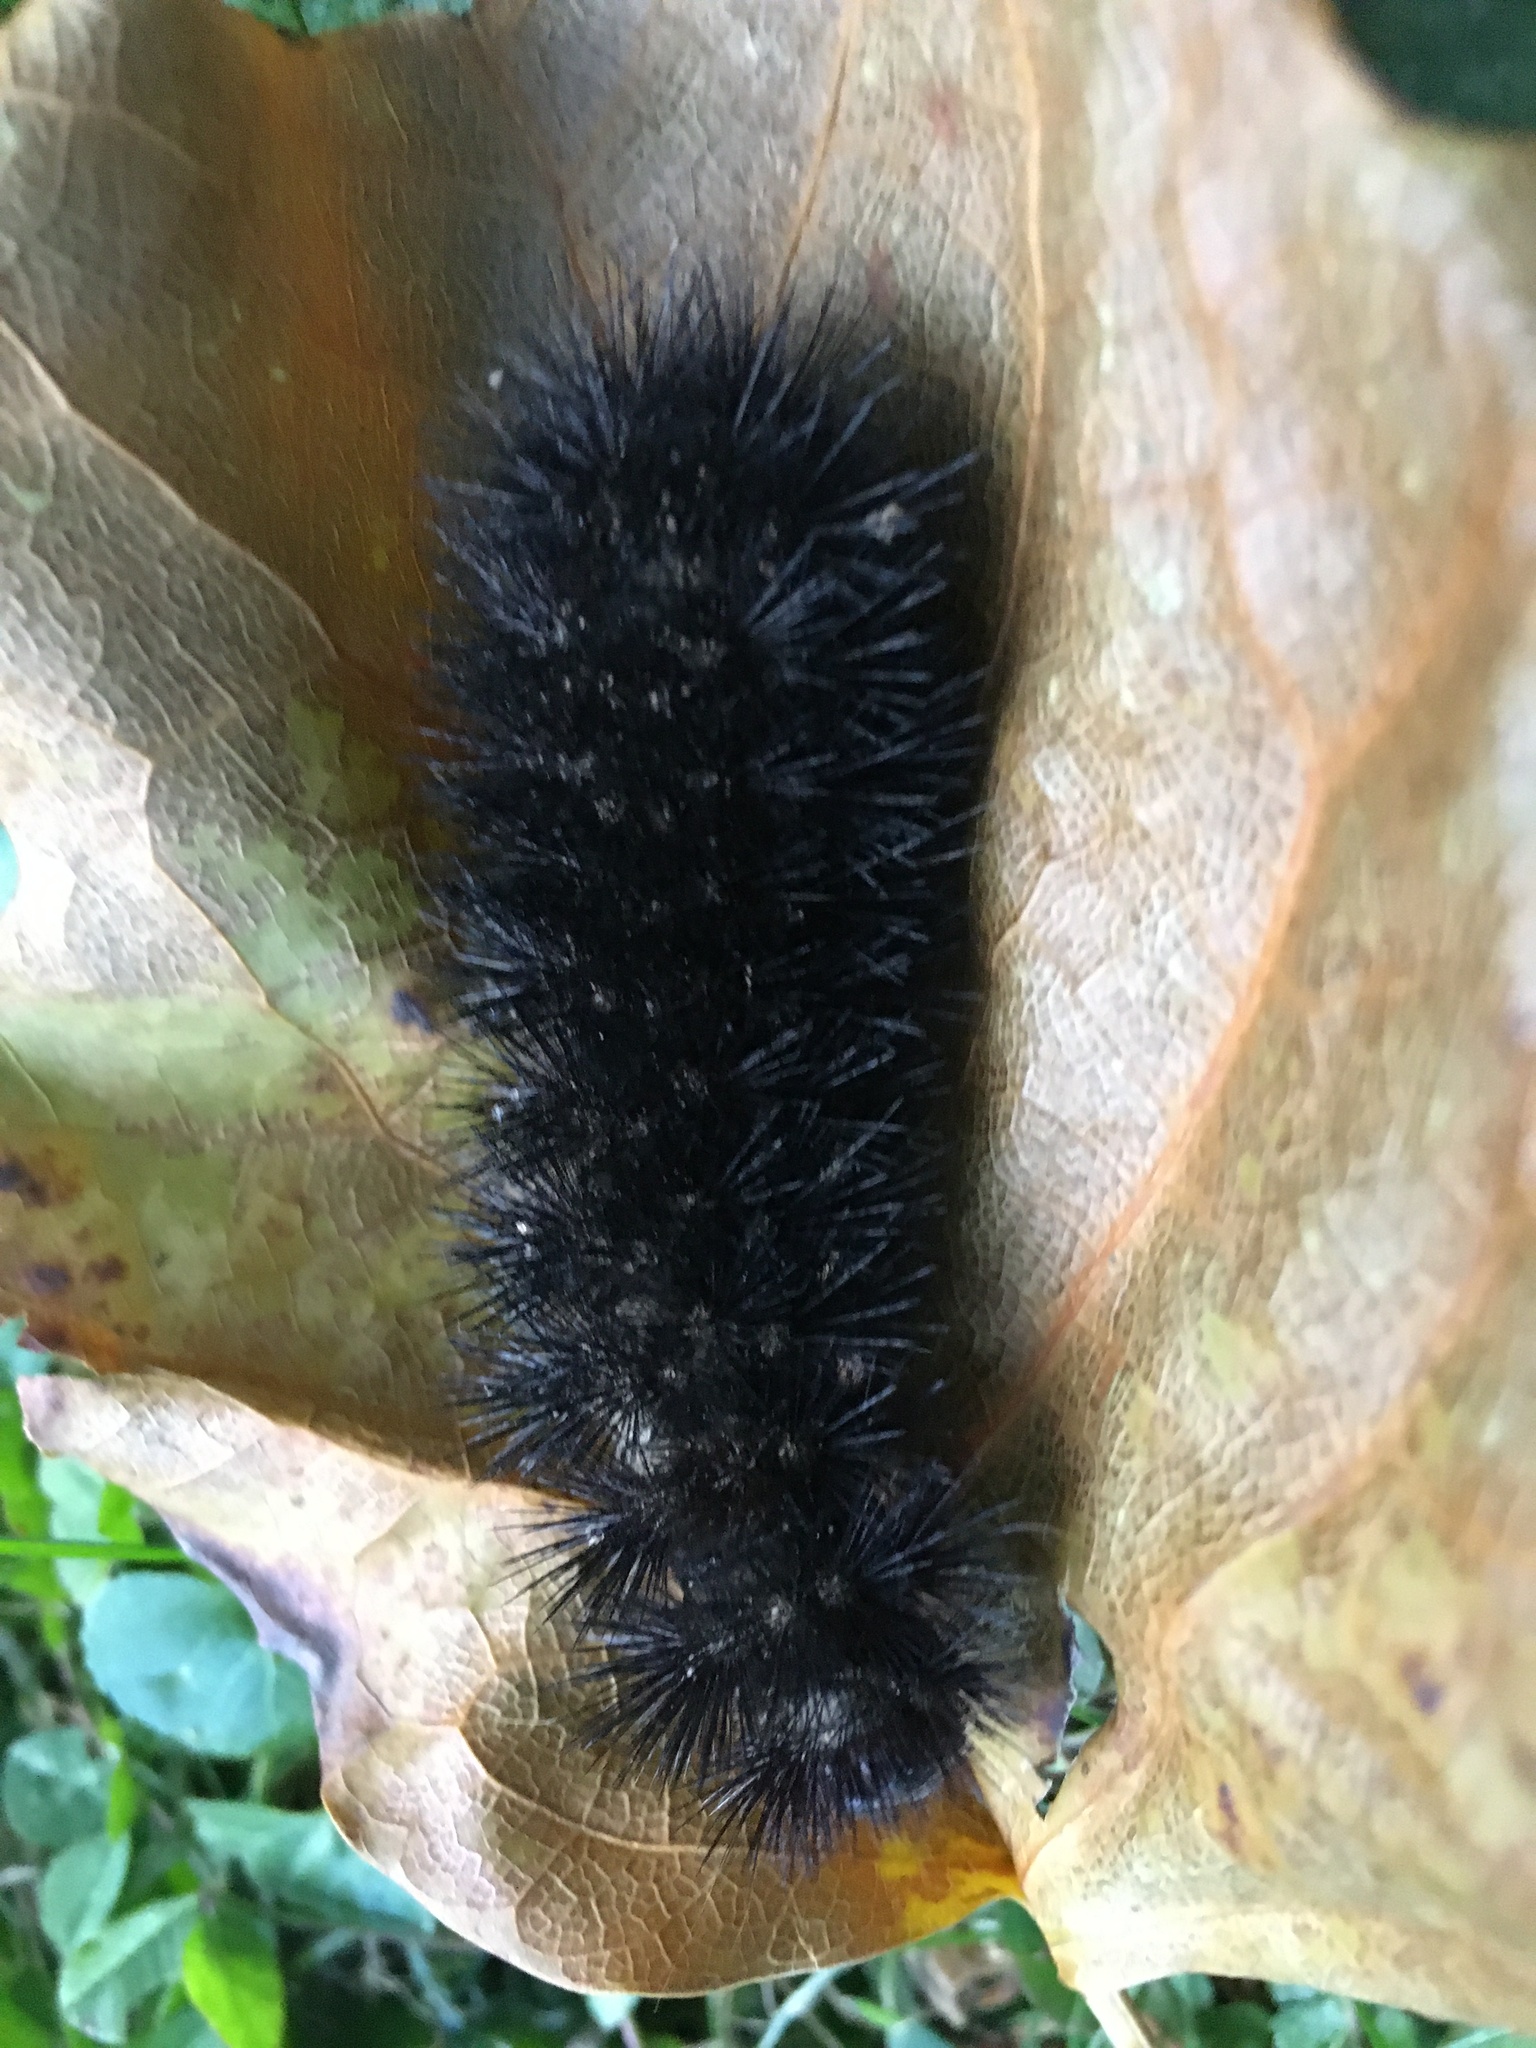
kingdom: Animalia
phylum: Arthropoda
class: Insecta
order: Lepidoptera
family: Erebidae
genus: Hypercompe
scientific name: Hypercompe scribonia
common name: Giant leopard moth
